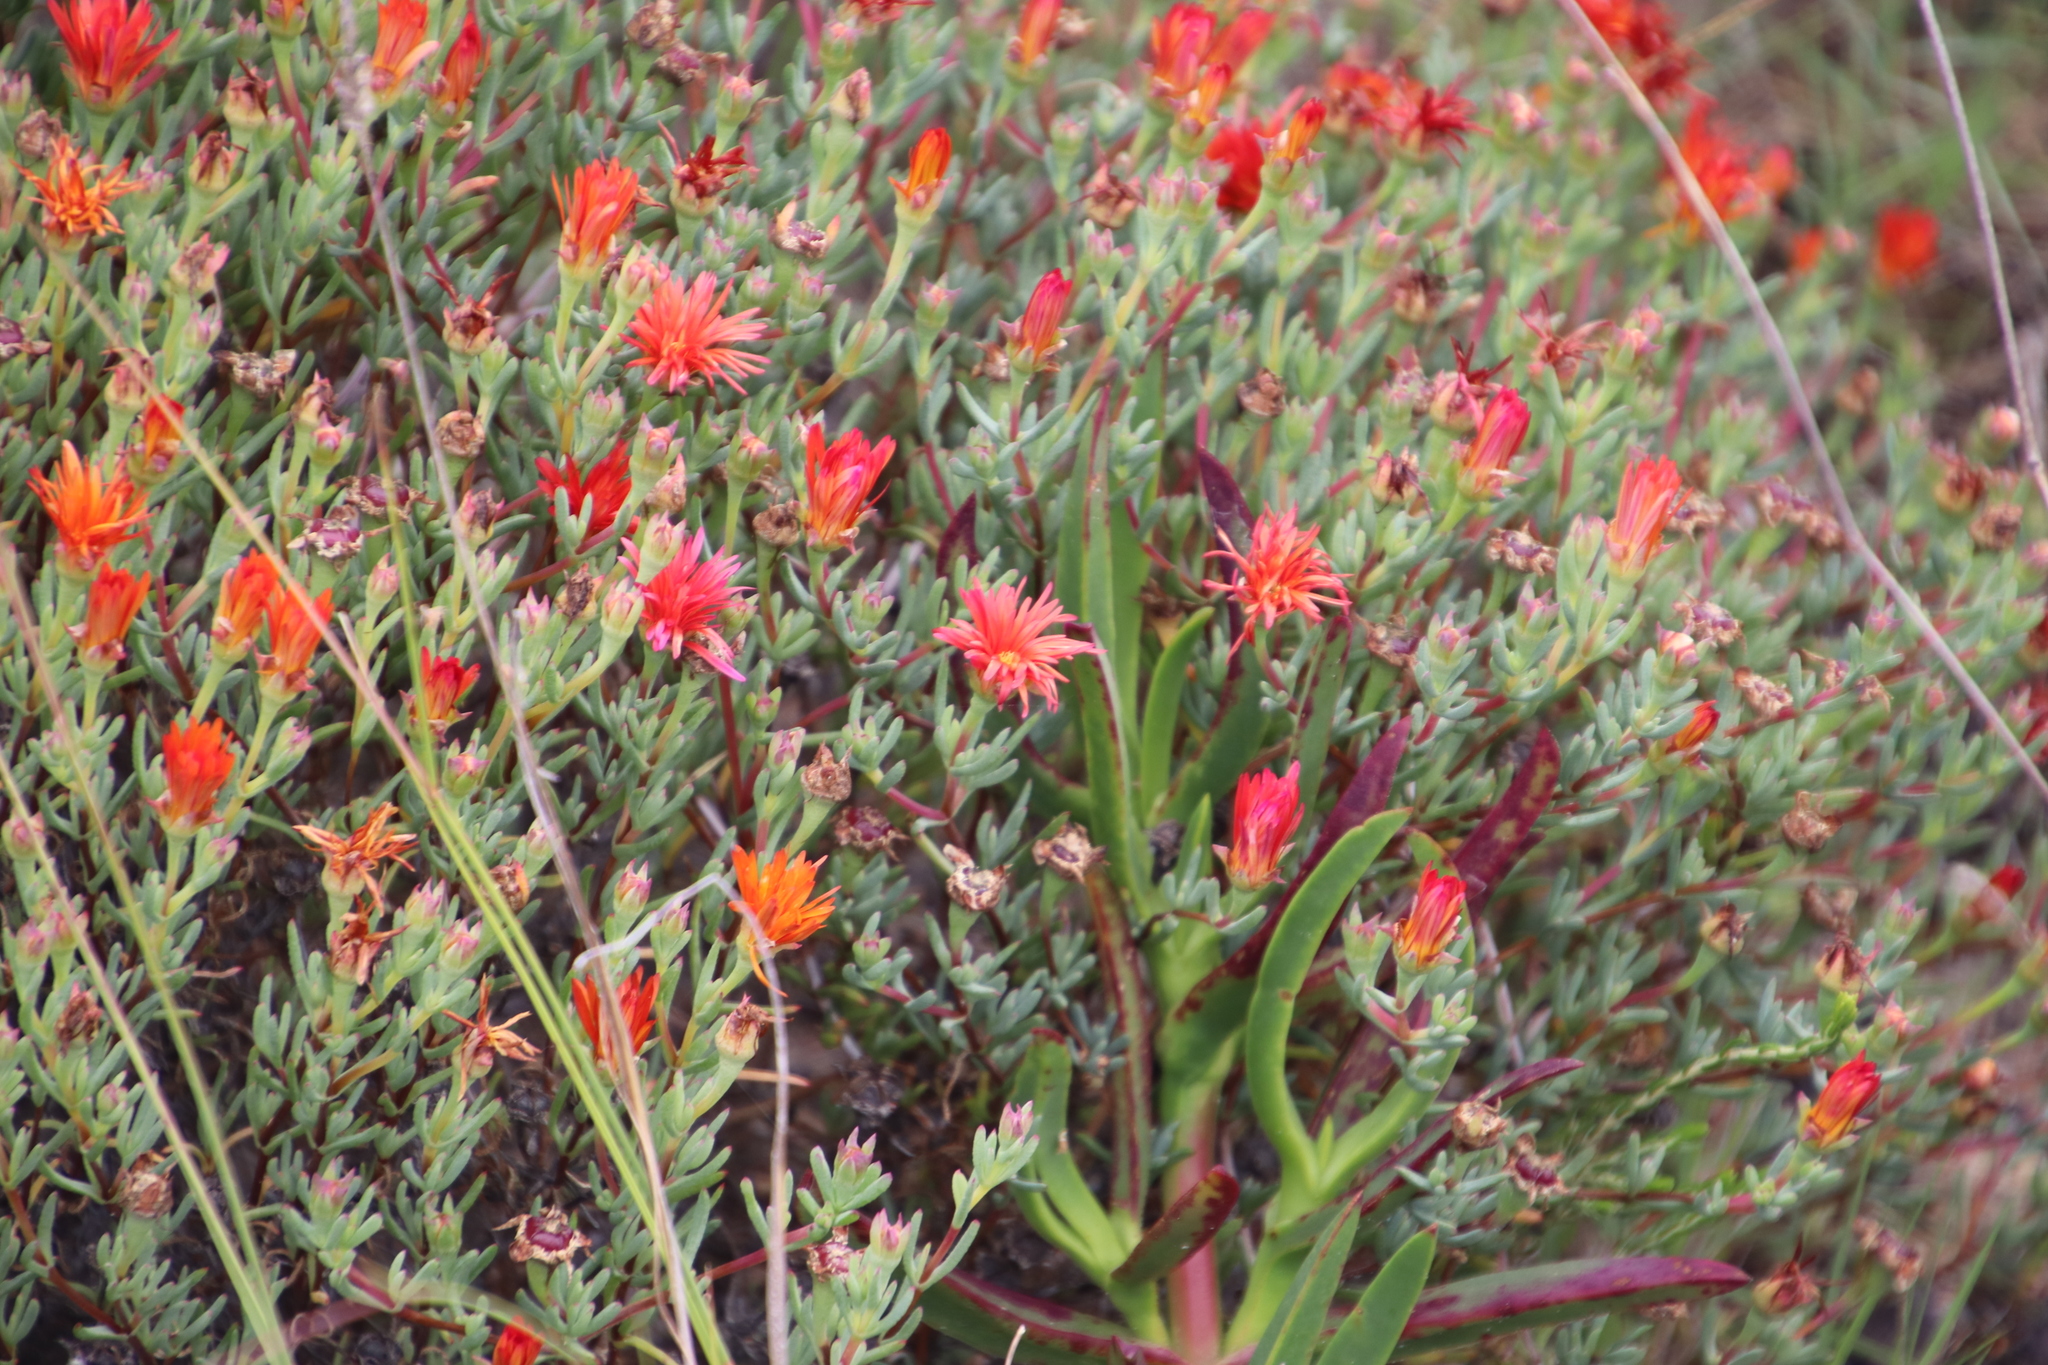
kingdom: Plantae
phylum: Tracheophyta
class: Magnoliopsida
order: Caryophyllales
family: Aizoaceae
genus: Lampranthus
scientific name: Lampranthus glaucoides
